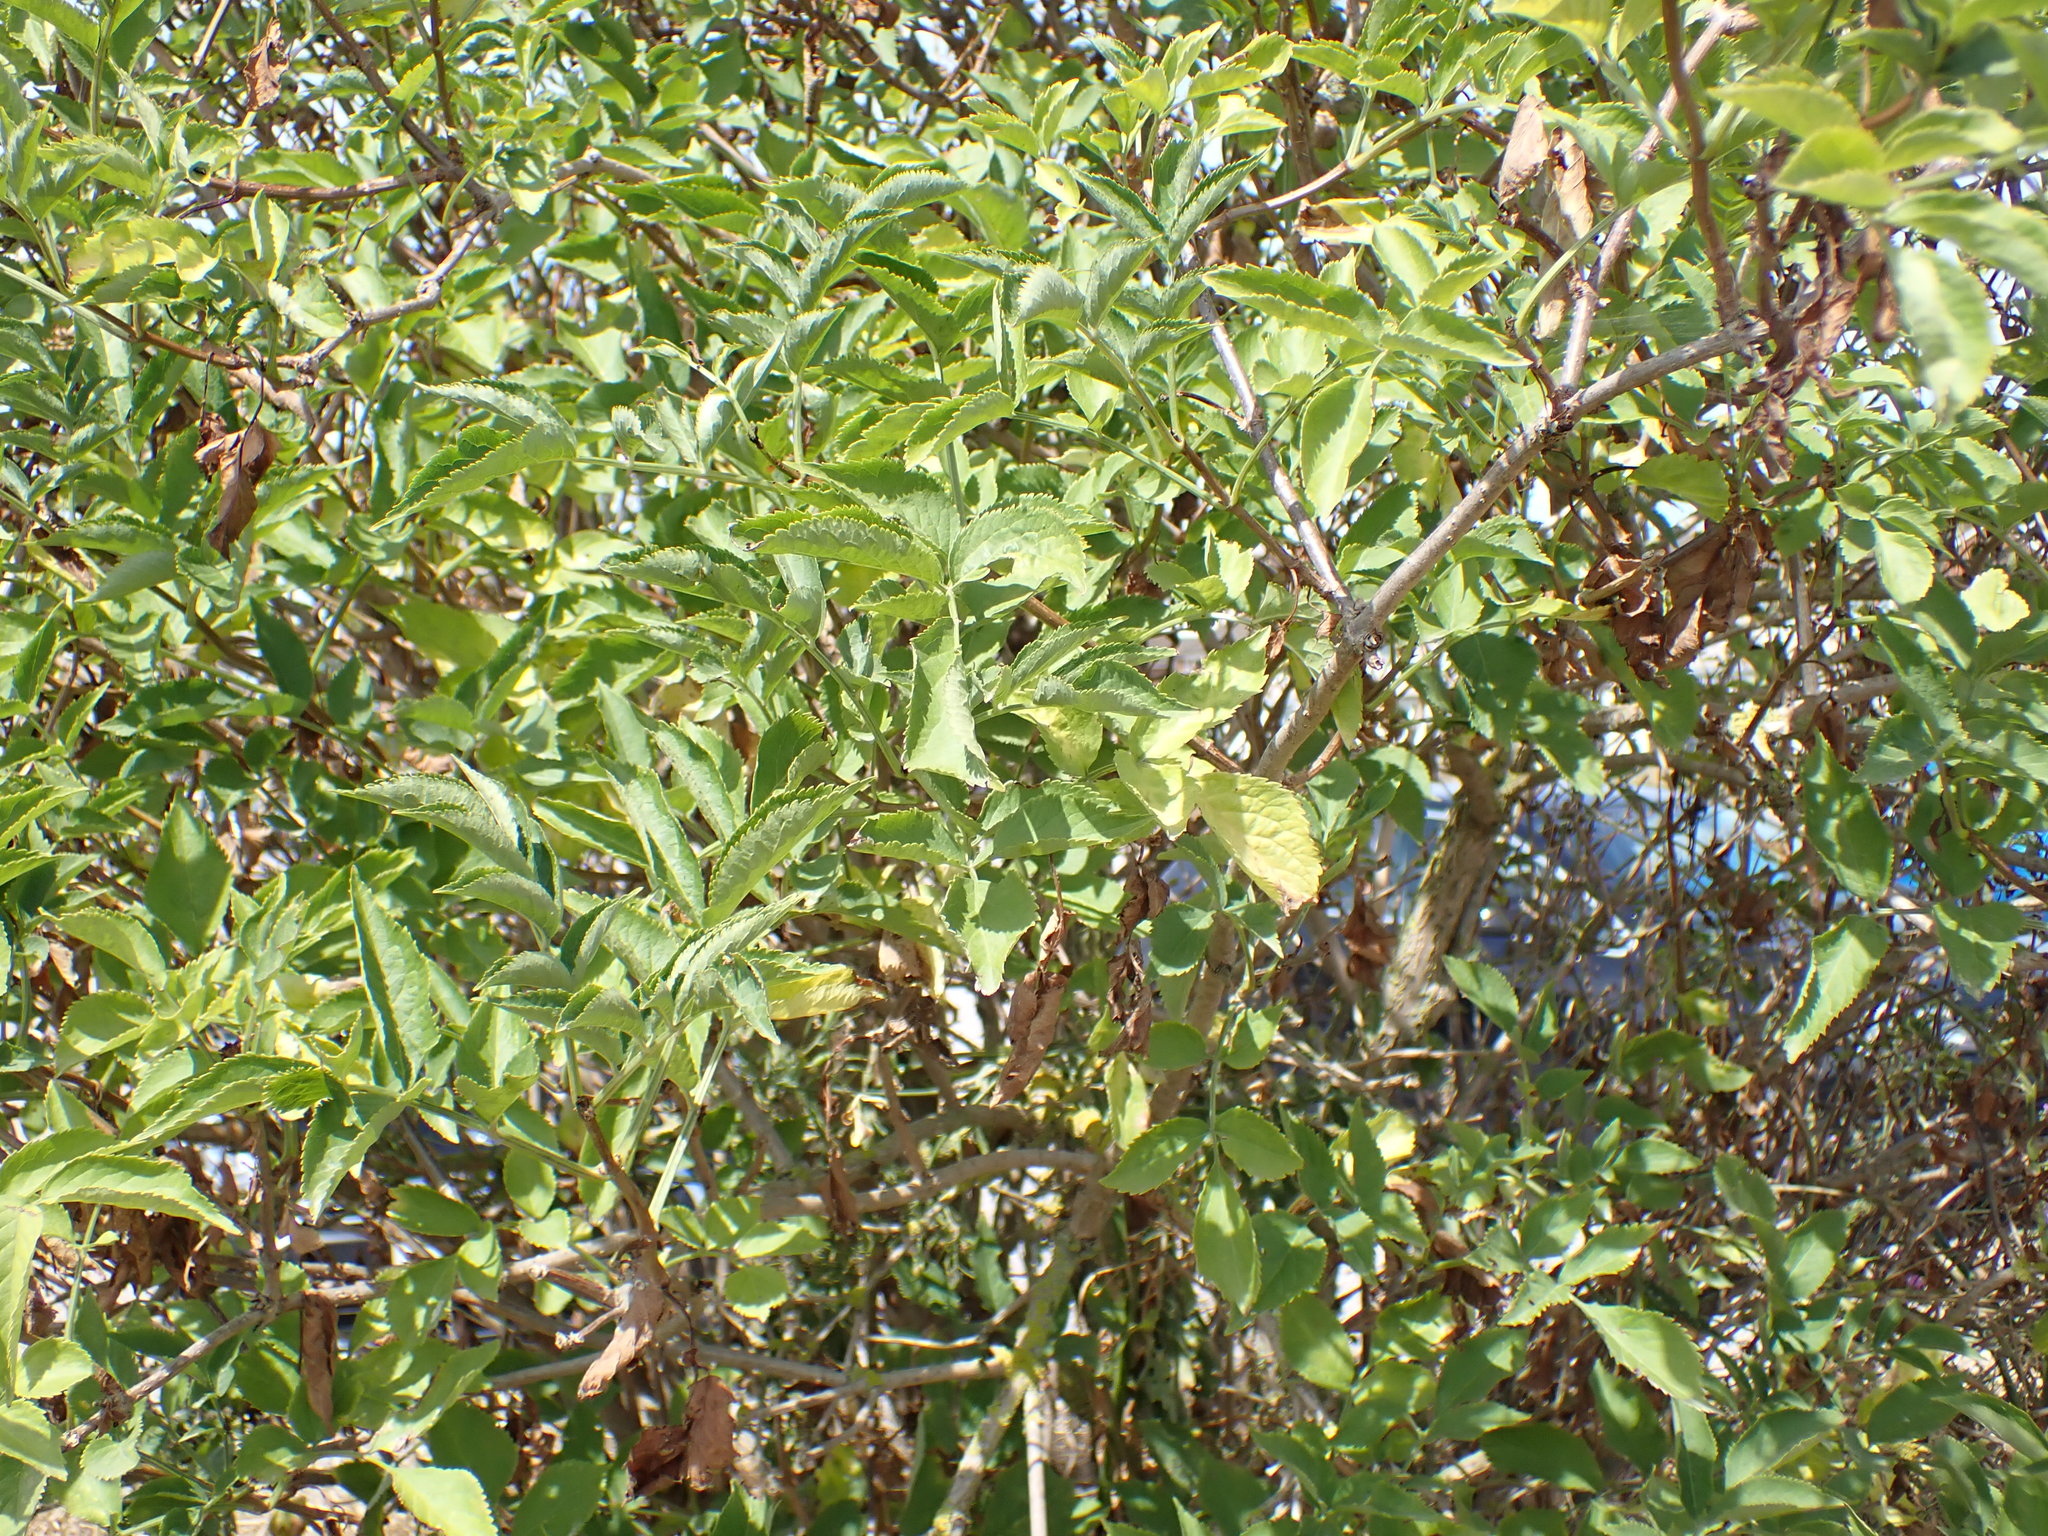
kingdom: Plantae
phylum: Tracheophyta
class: Magnoliopsida
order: Dipsacales
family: Viburnaceae
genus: Sambucus
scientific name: Sambucus nigra
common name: Elder
